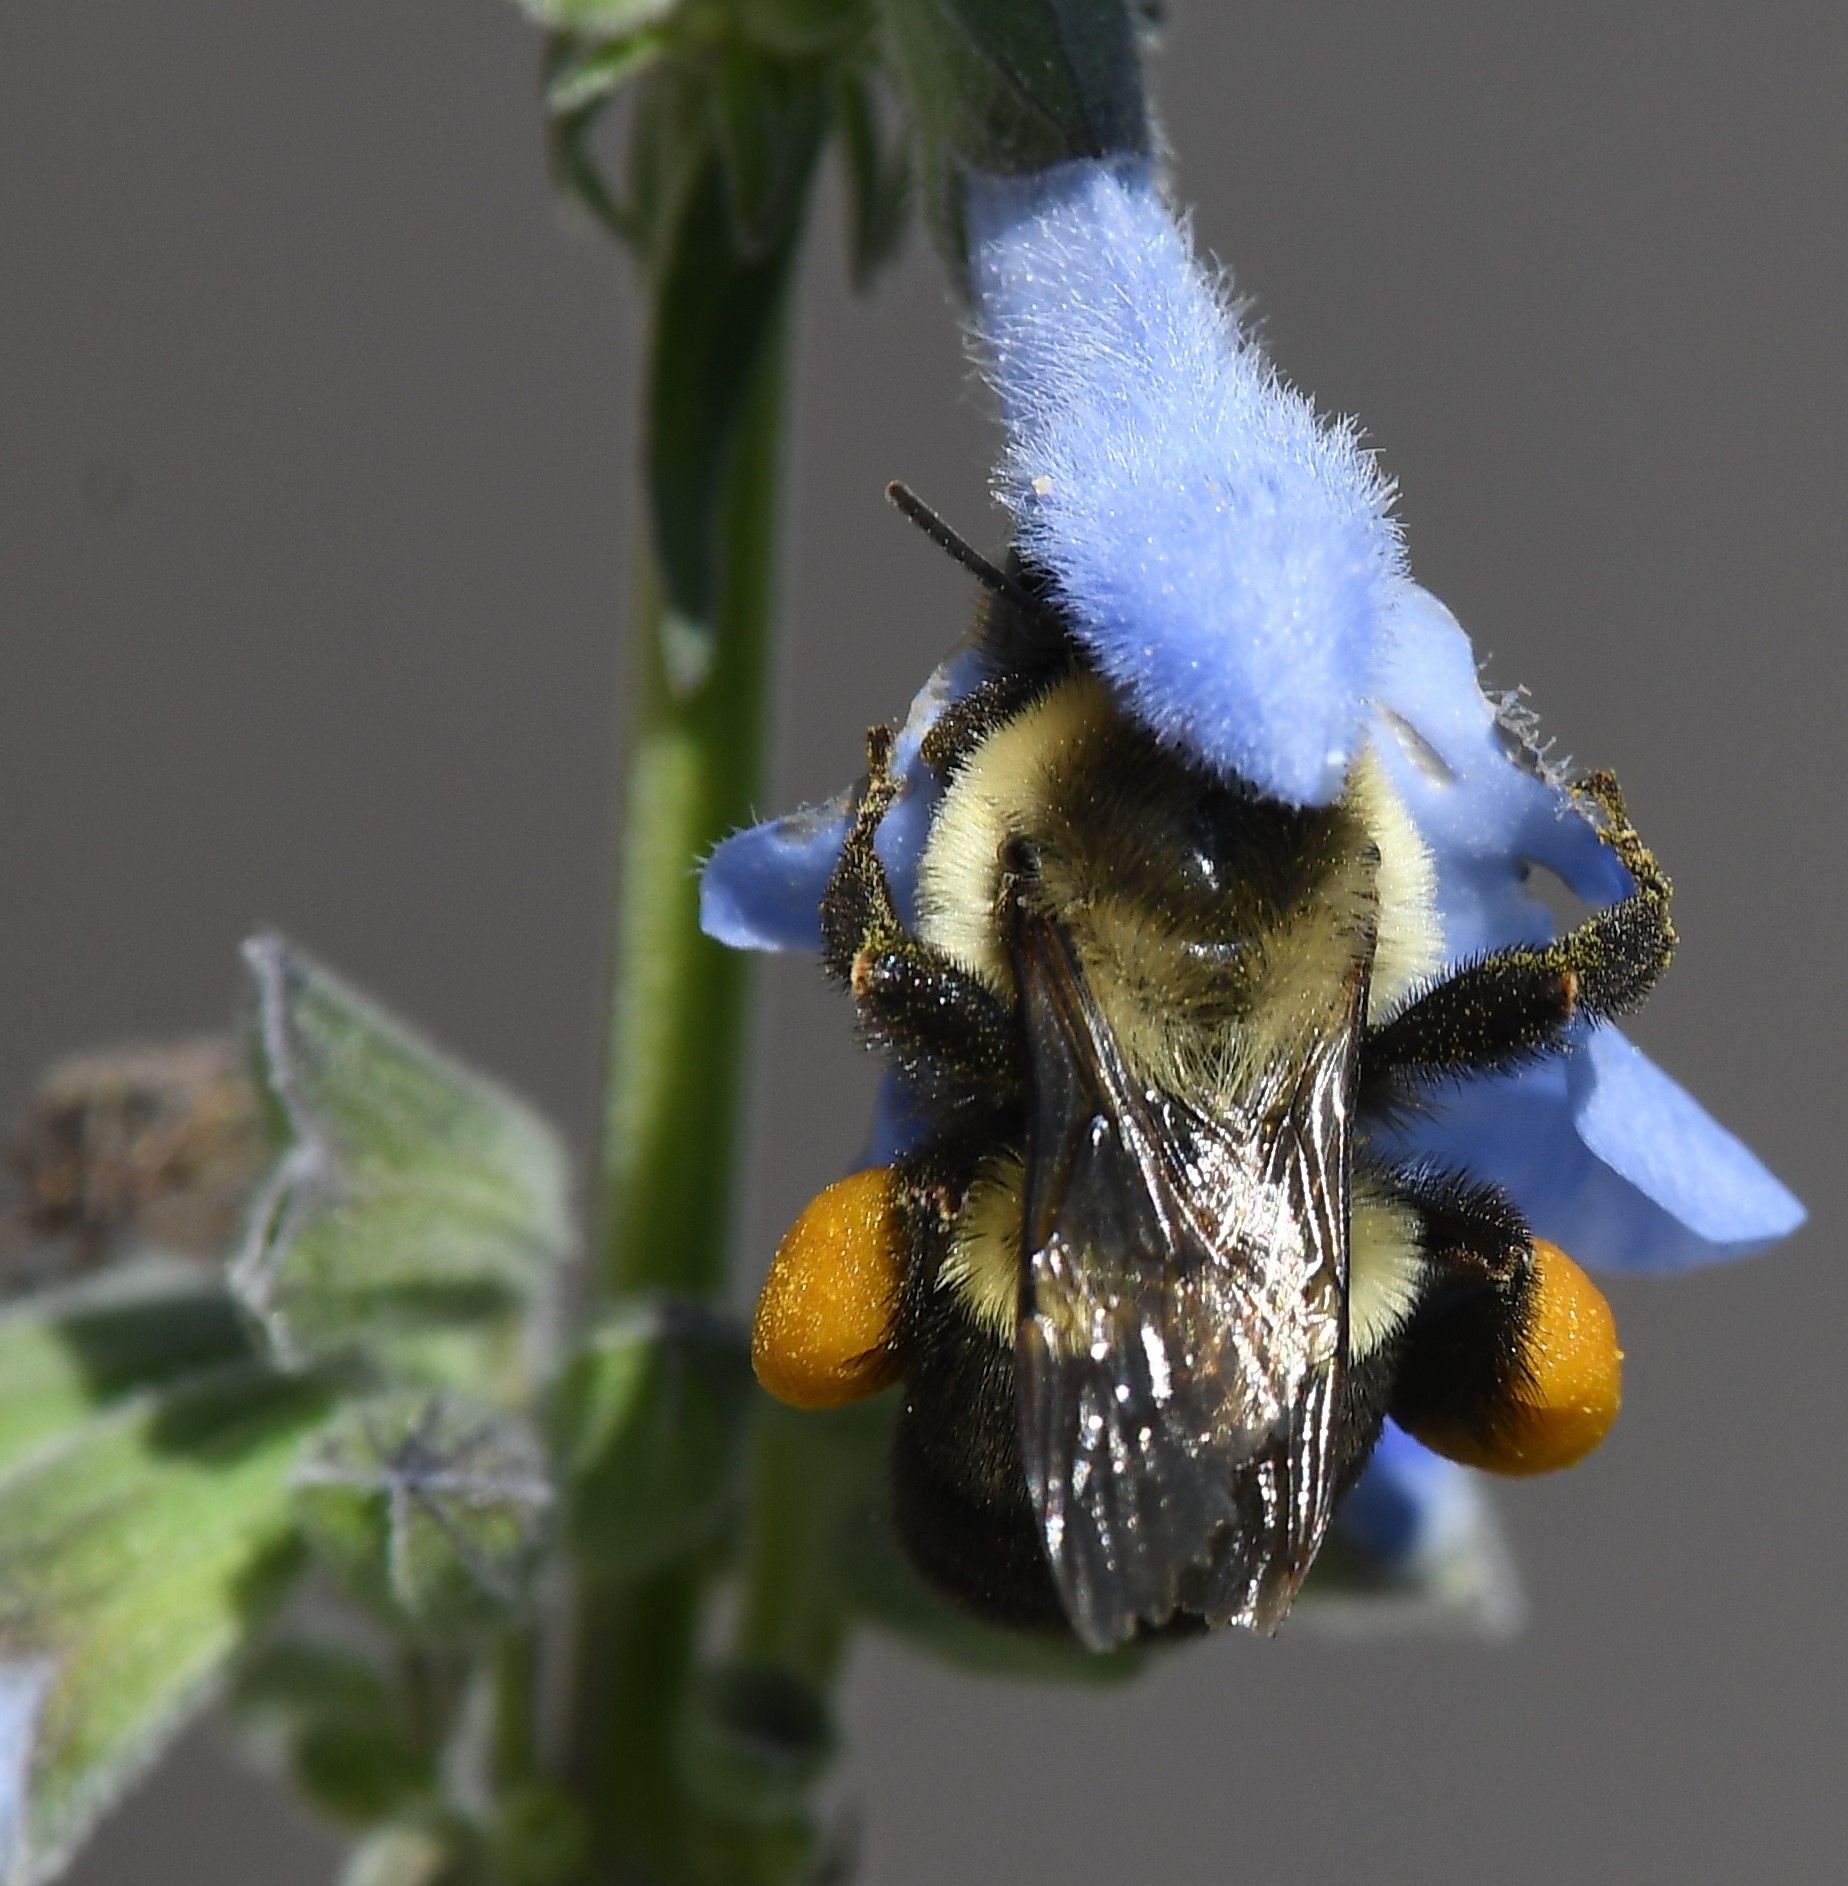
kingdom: Animalia
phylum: Arthropoda
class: Insecta
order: Hymenoptera
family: Apidae
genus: Bombus
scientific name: Bombus impatiens
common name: Common eastern bumble bee
